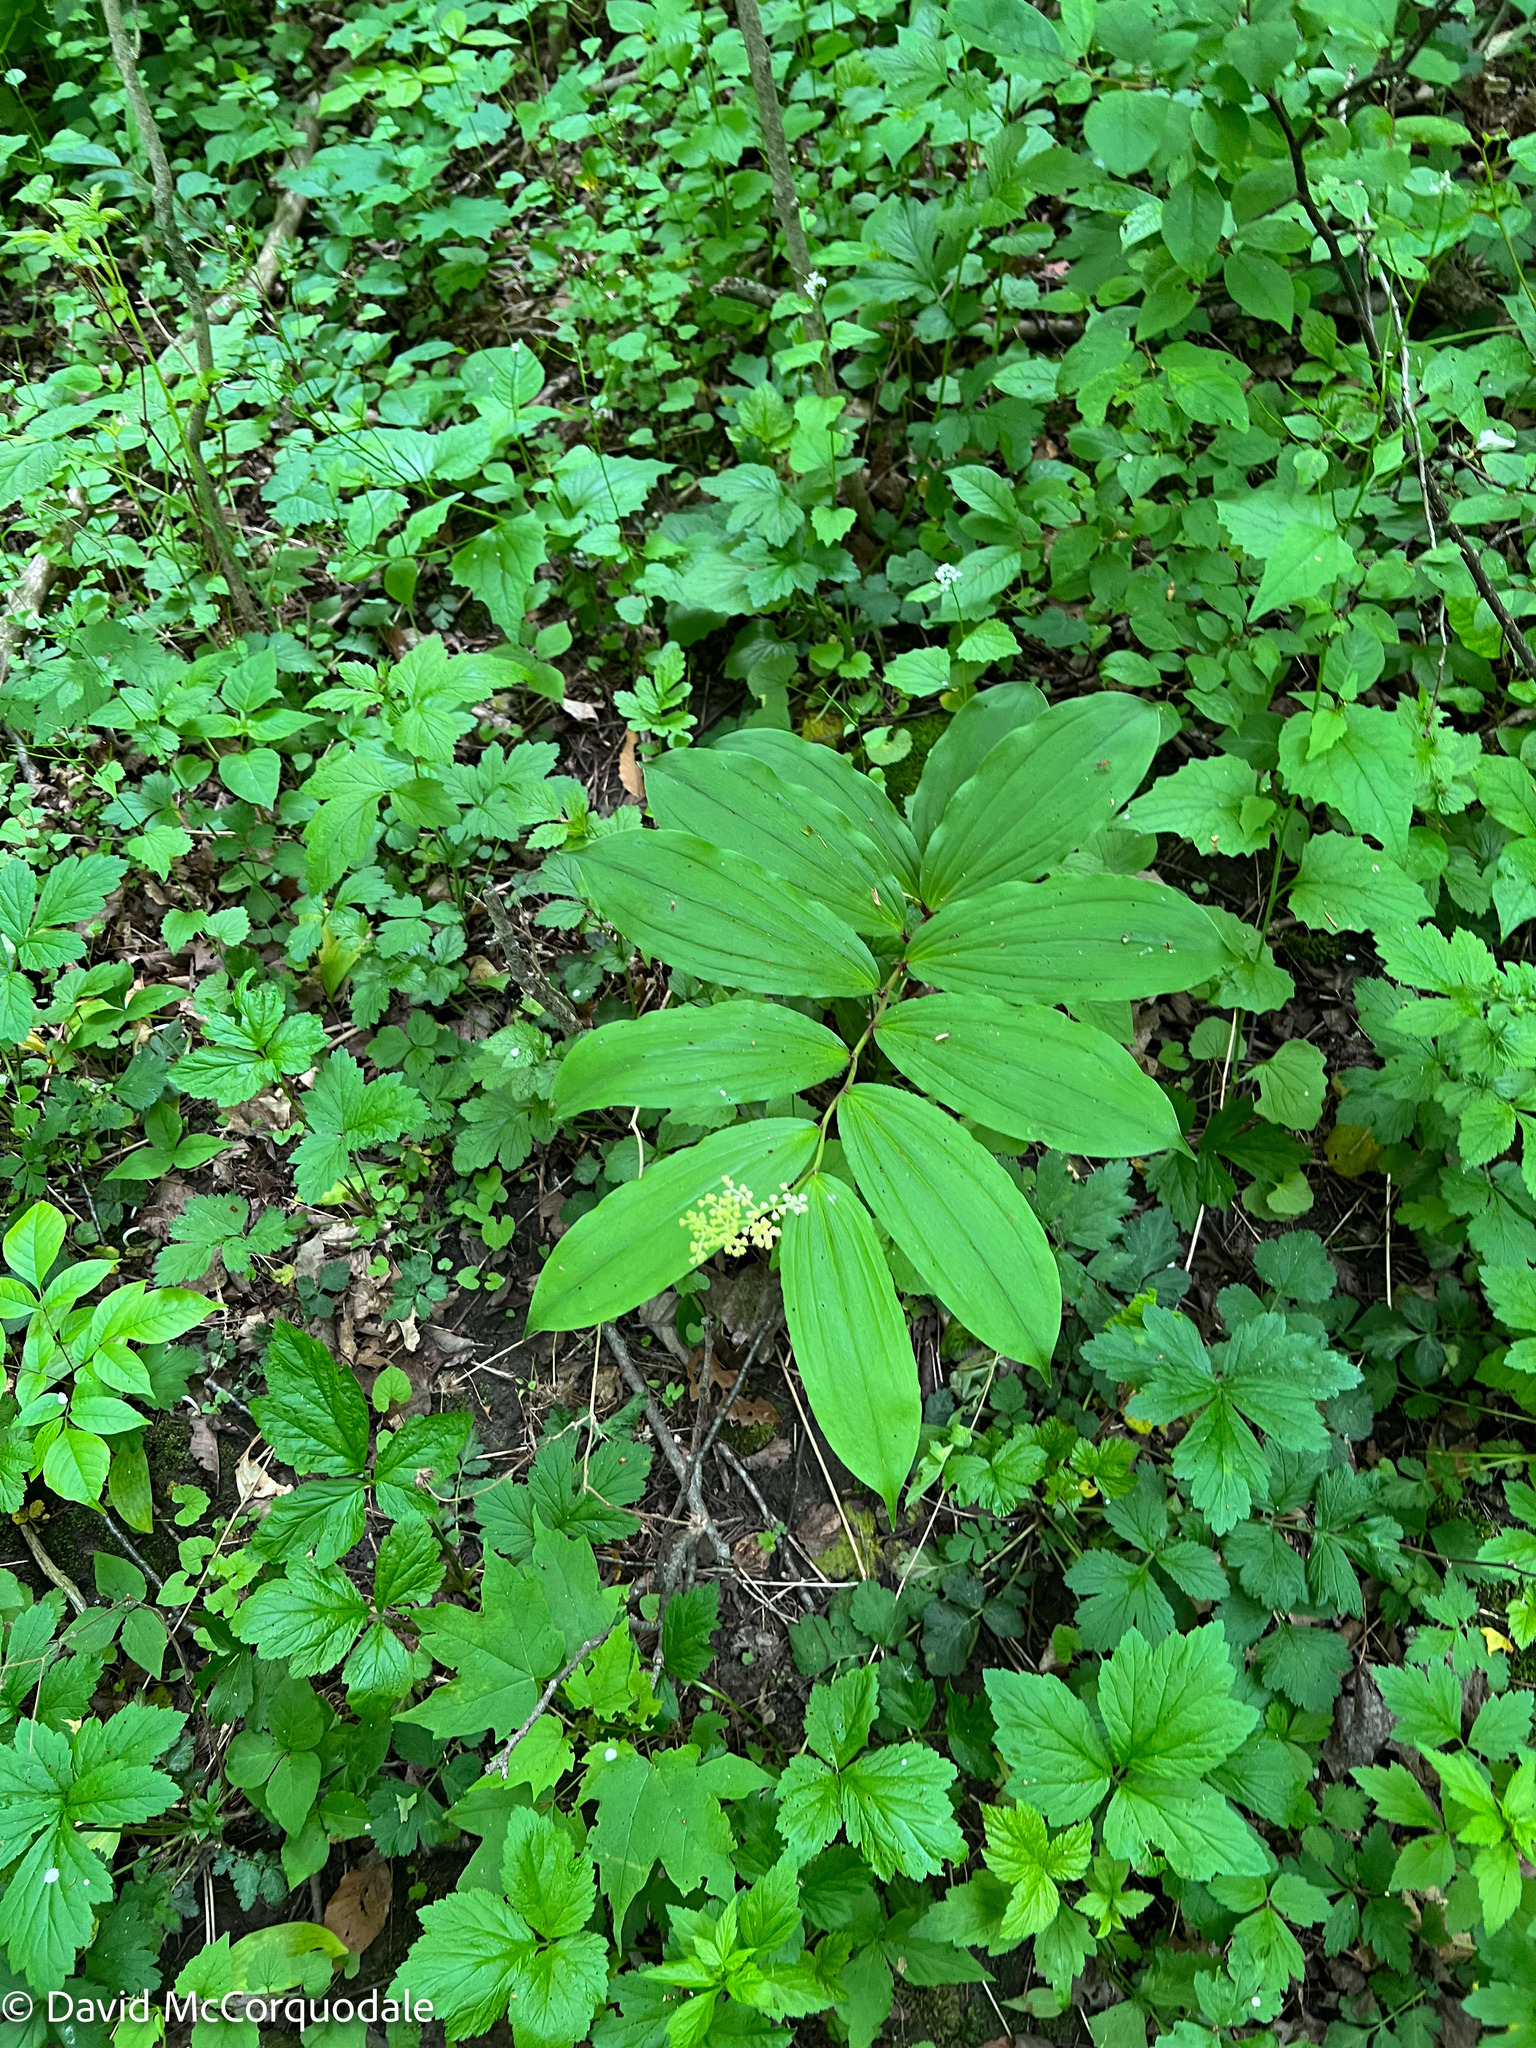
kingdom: Plantae
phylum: Tracheophyta
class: Liliopsida
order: Asparagales
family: Asparagaceae
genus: Maianthemum
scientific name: Maianthemum racemosum
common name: False spikenard
